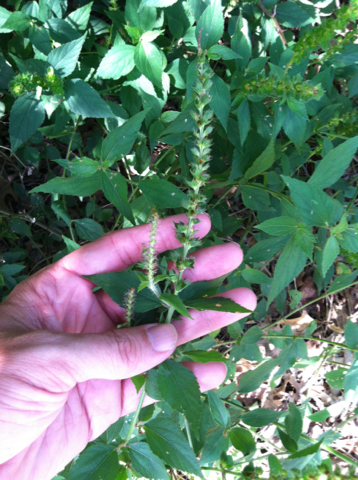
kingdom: Plantae
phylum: Tracheophyta
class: Magnoliopsida
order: Malpighiales
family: Euphorbiaceae
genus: Acalypha
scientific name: Acalypha phleoides
